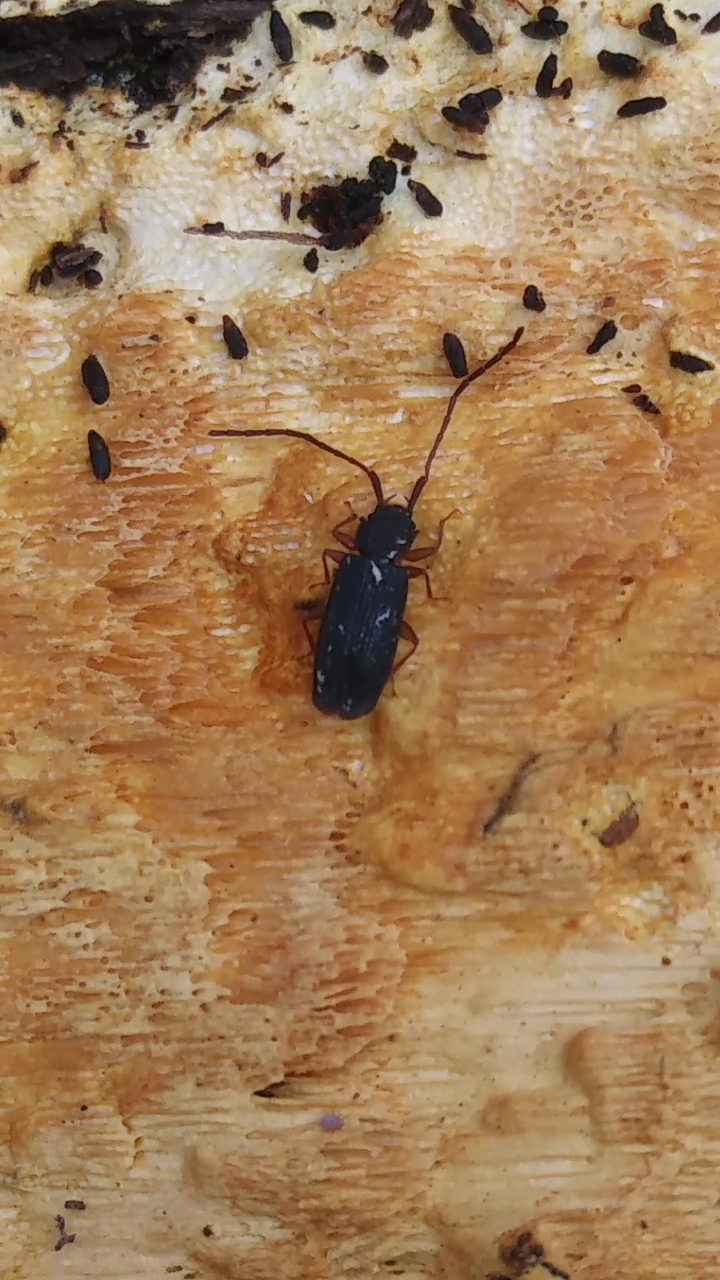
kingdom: Animalia
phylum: Arthropoda
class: Insecta
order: Coleoptera
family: Silvanidae
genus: Uleiota
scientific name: Uleiota dubia
